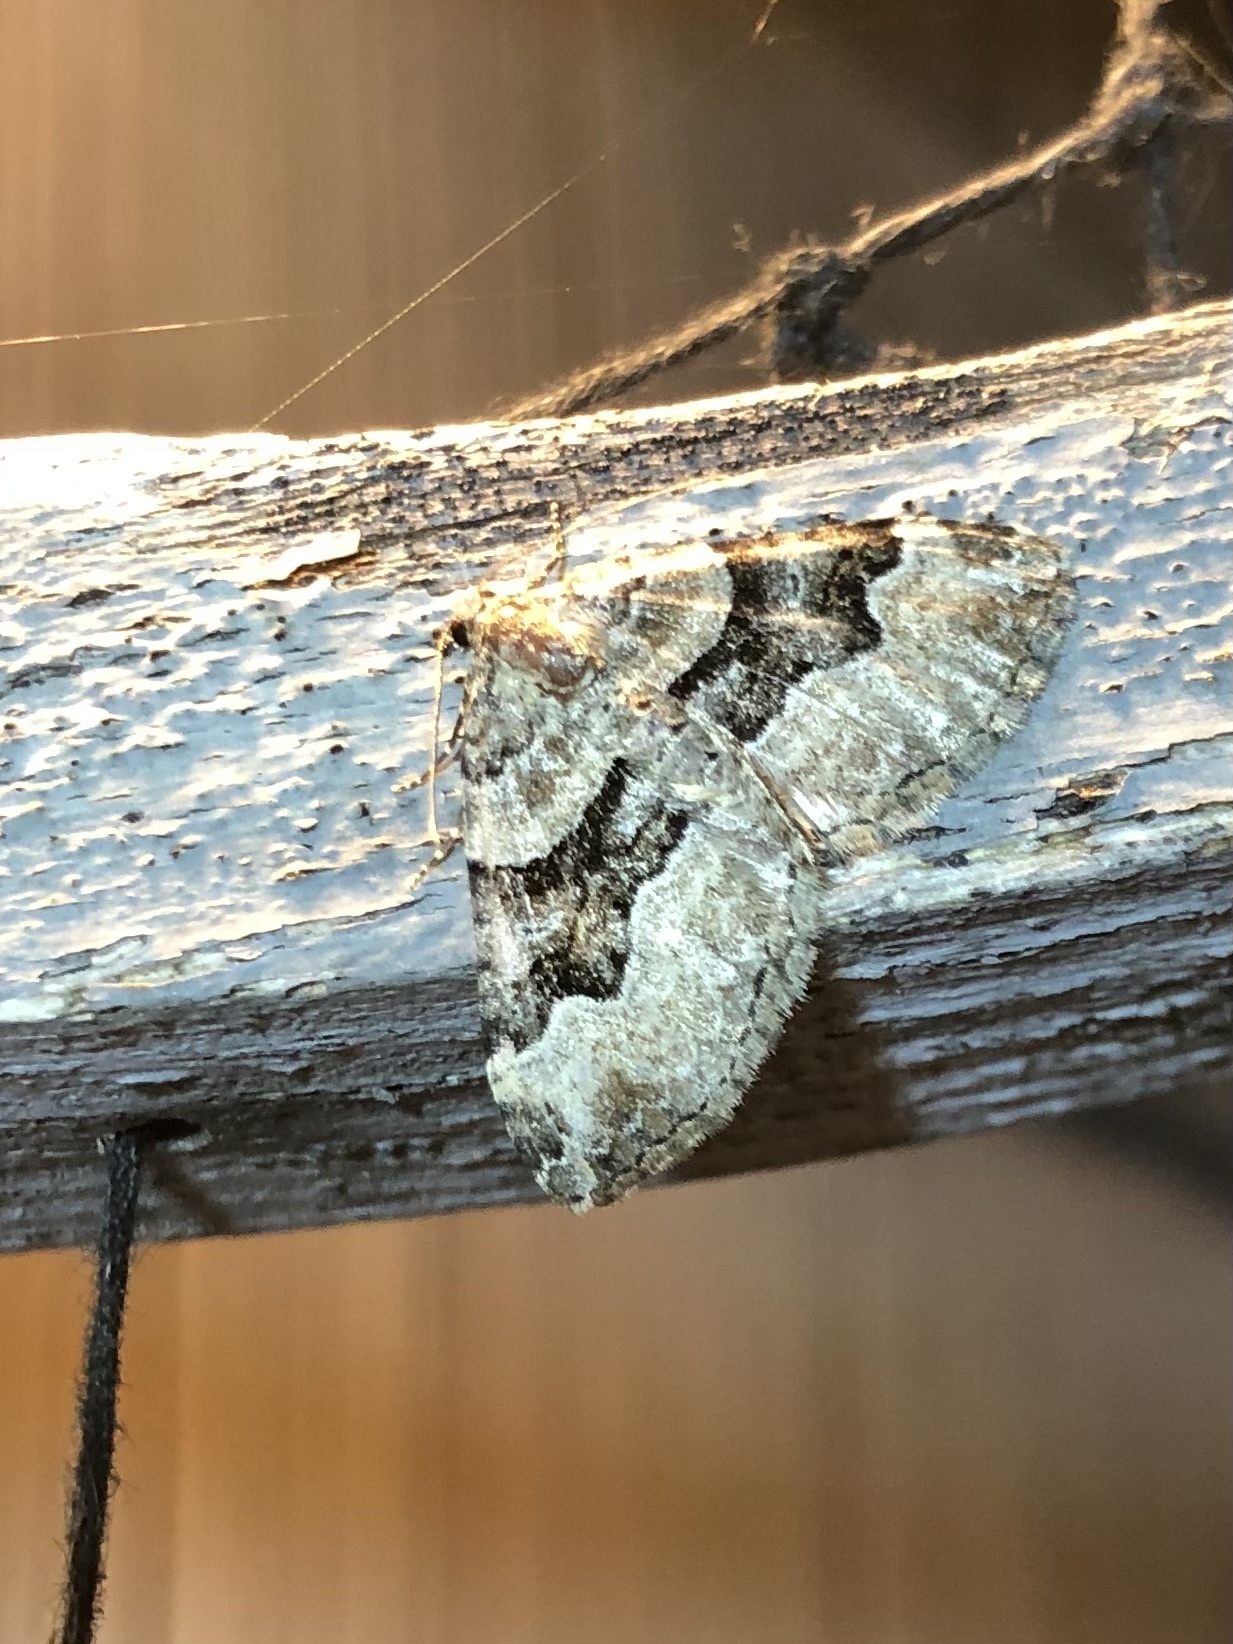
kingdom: Animalia
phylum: Arthropoda
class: Insecta
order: Lepidoptera
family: Geometridae
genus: Xanthorhoe
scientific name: Xanthorhoe lacustrata
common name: Toothed brown carpet
